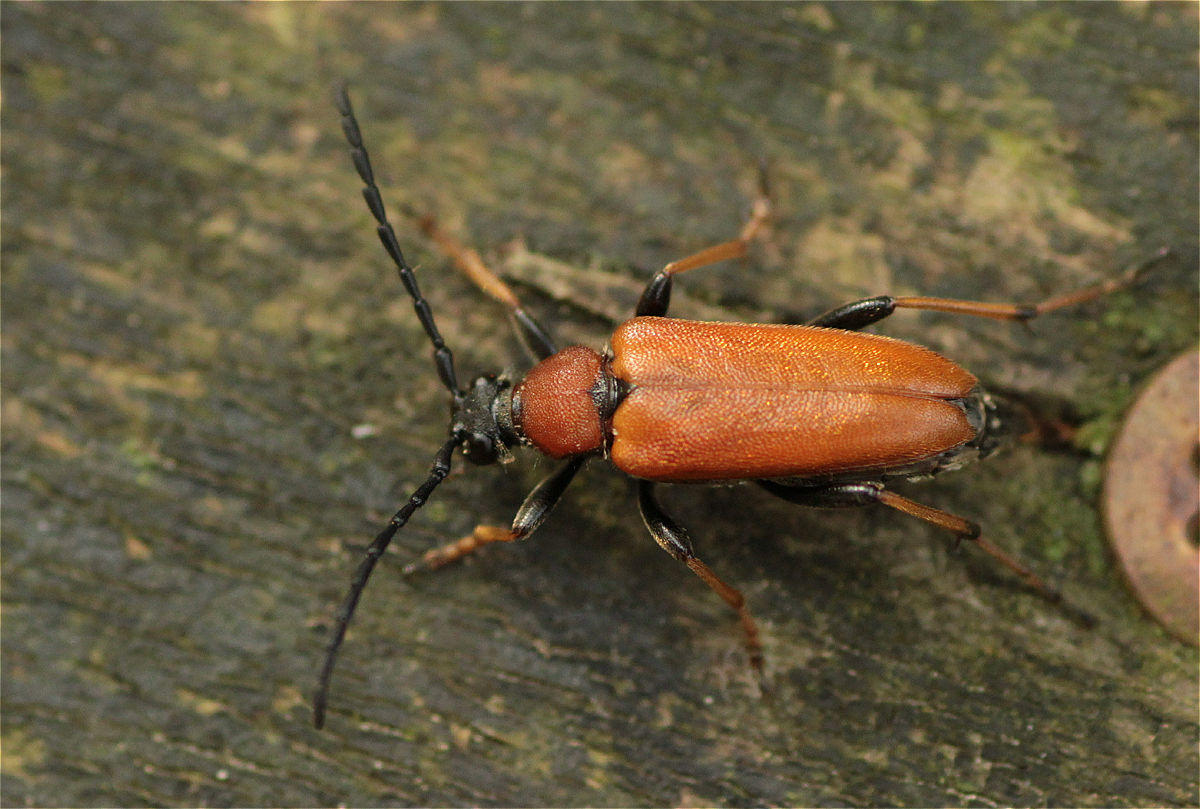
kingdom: Animalia
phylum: Arthropoda
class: Insecta
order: Coleoptera
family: Cerambycidae
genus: Stictoleptura
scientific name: Stictoleptura rubra
